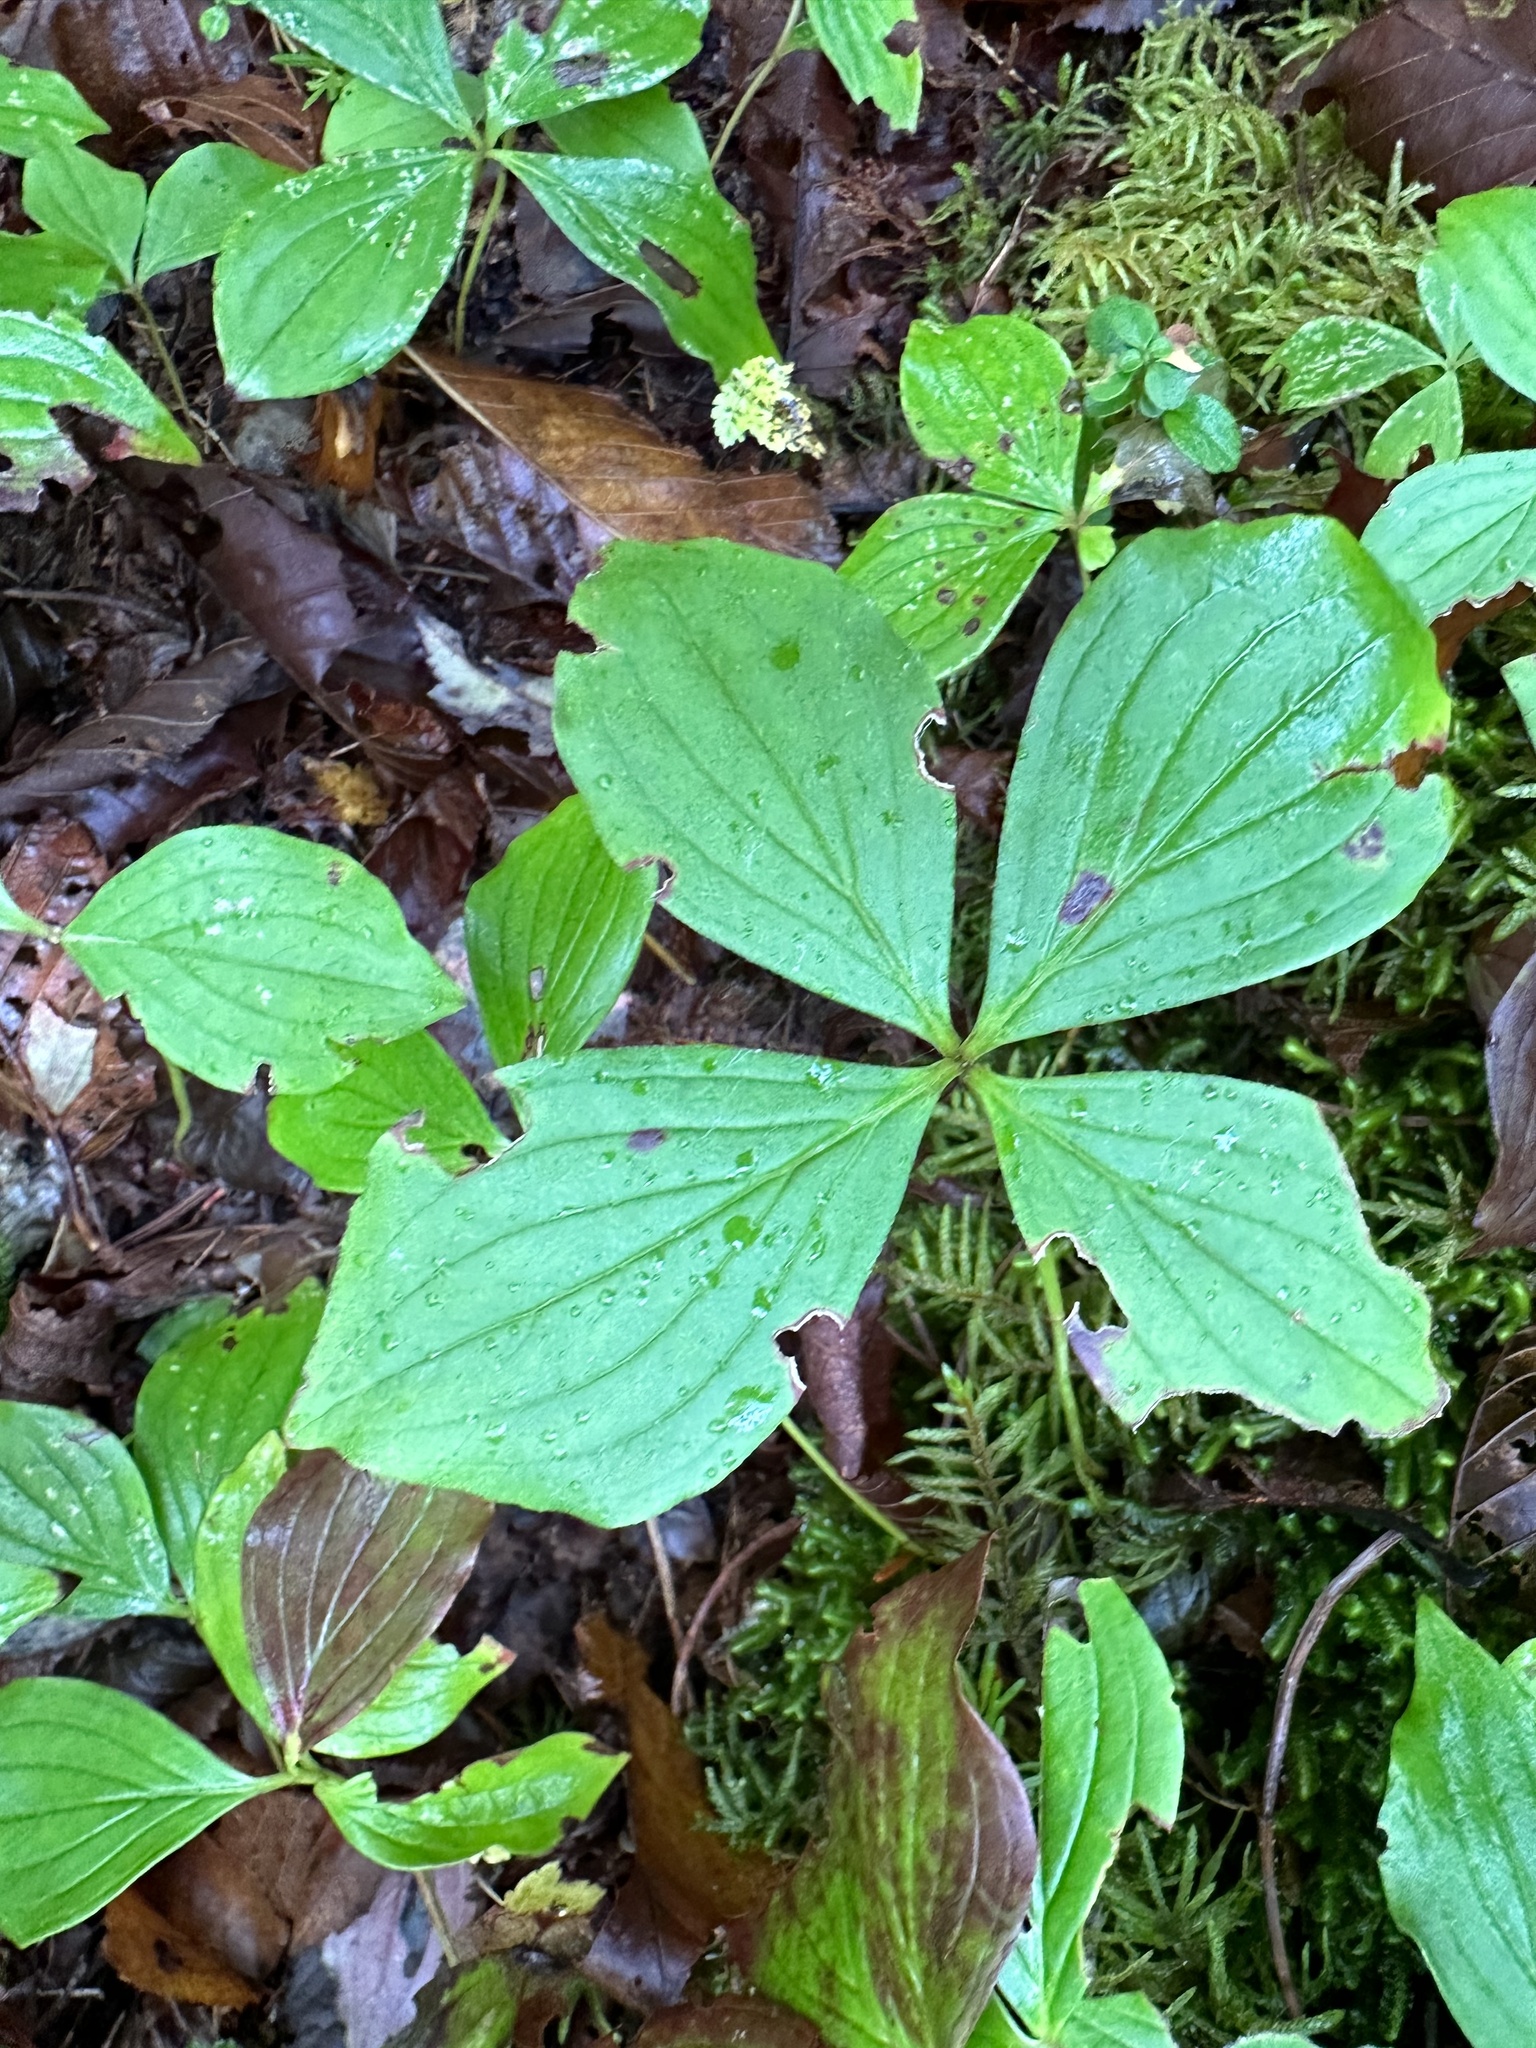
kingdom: Plantae
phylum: Tracheophyta
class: Magnoliopsida
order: Cornales
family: Cornaceae
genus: Cornus
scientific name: Cornus canadensis
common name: Creeping dogwood
